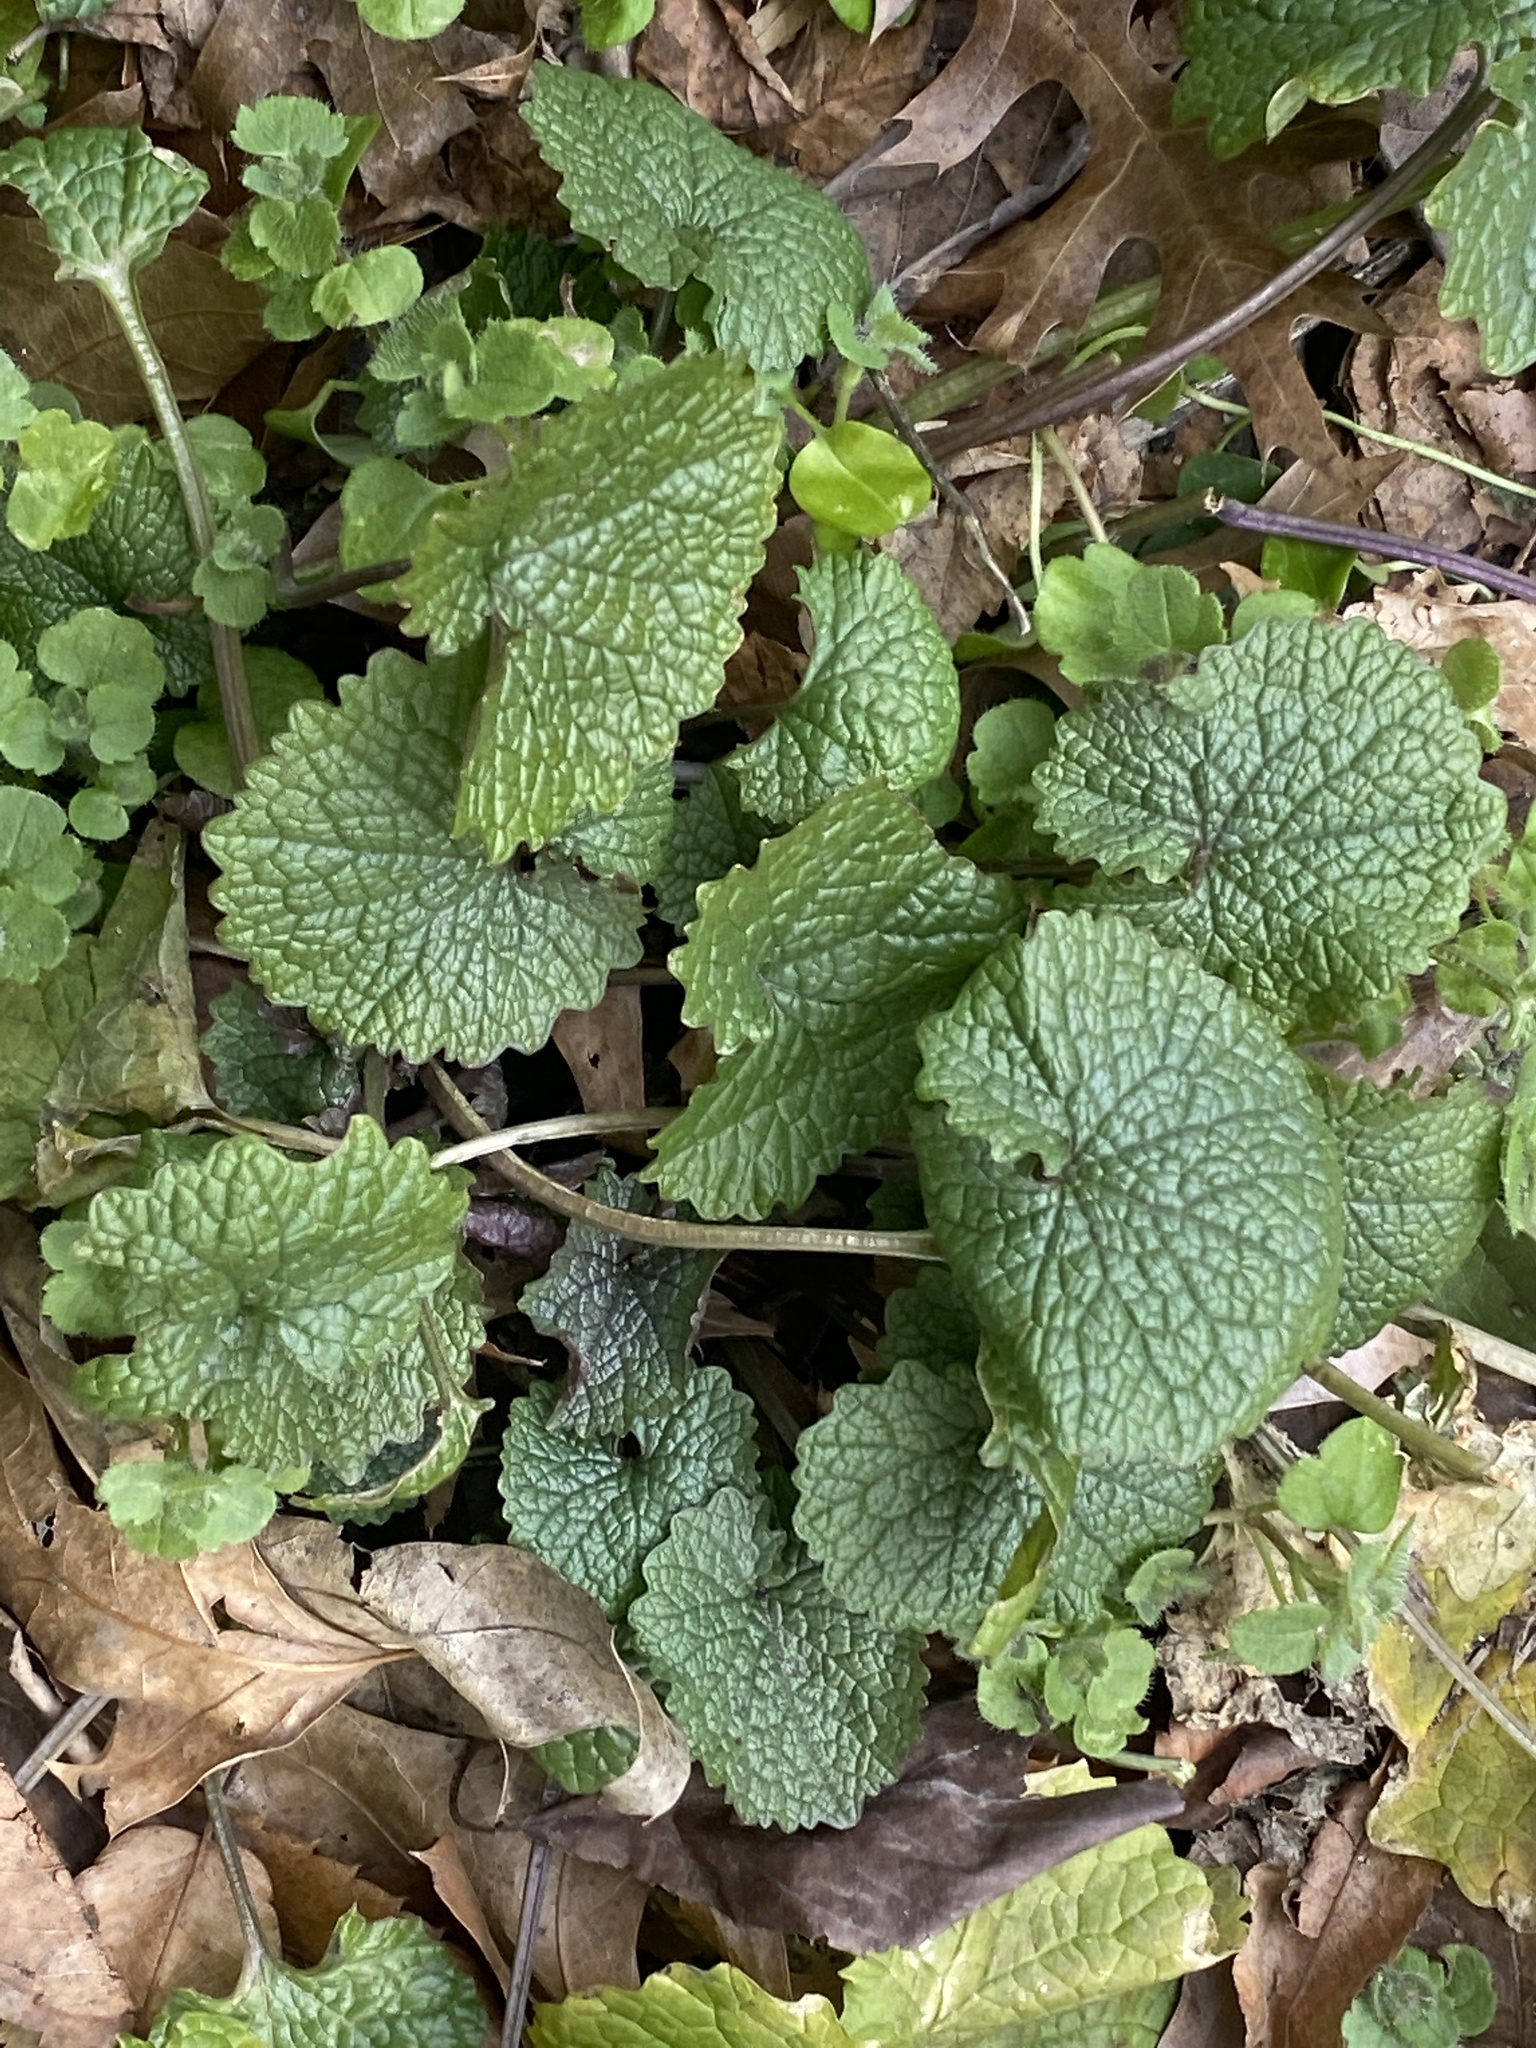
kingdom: Plantae
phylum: Tracheophyta
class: Magnoliopsida
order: Brassicales
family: Brassicaceae
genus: Alliaria
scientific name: Alliaria petiolata
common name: Garlic mustard
